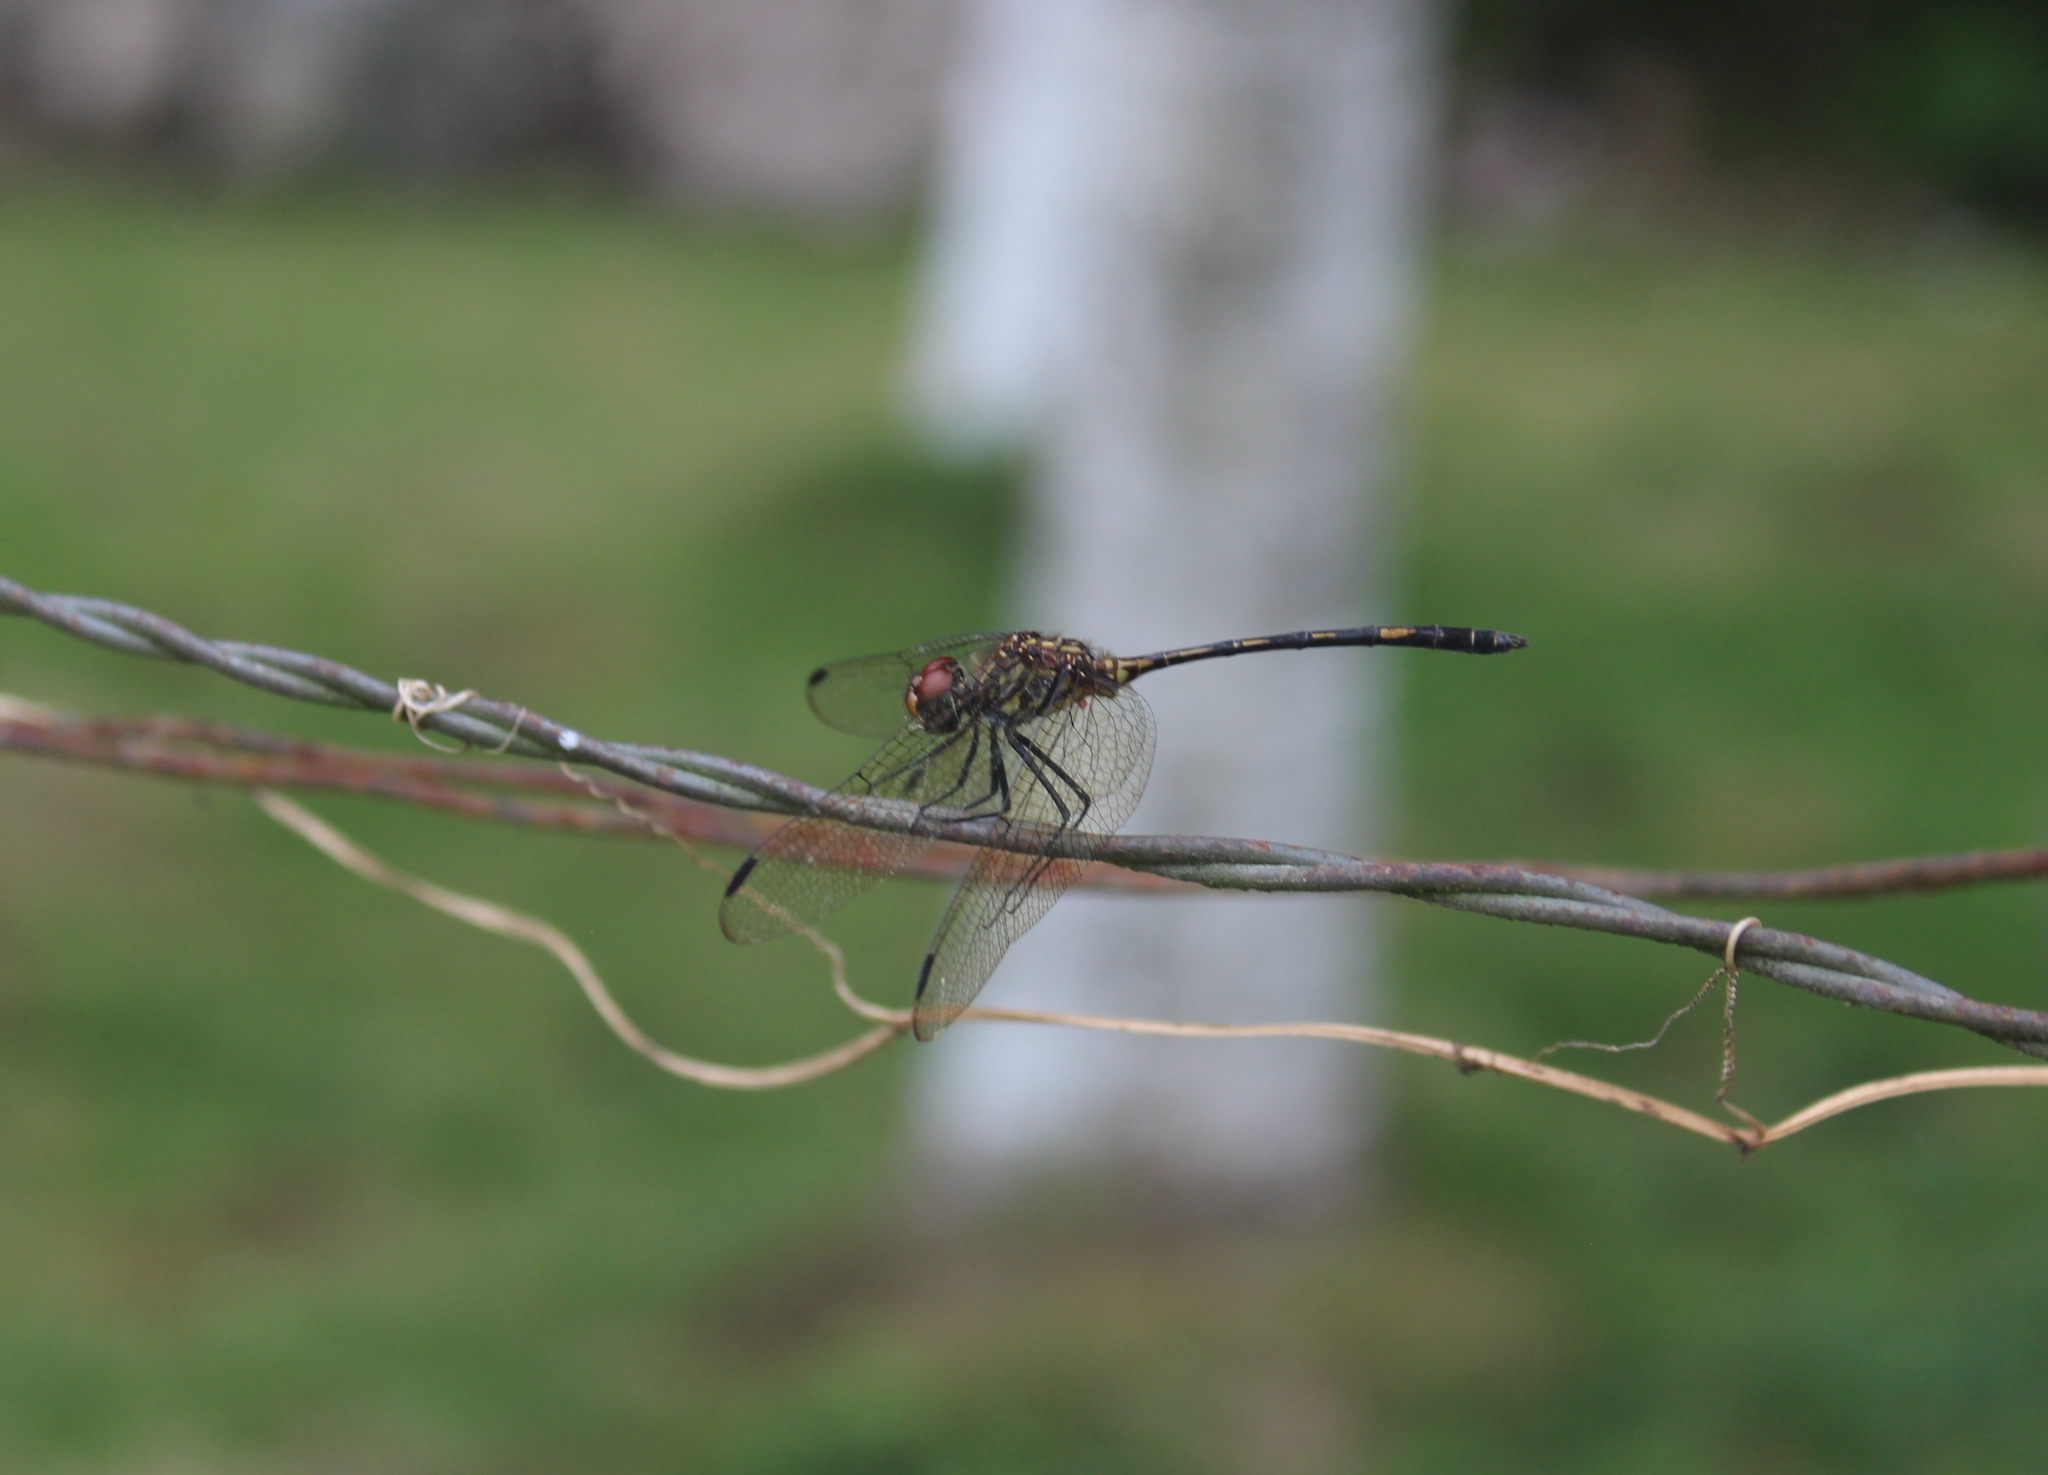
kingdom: Animalia
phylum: Arthropoda
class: Insecta
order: Odonata
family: Libellulidae
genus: Dythemis
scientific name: Dythemis sterilis
